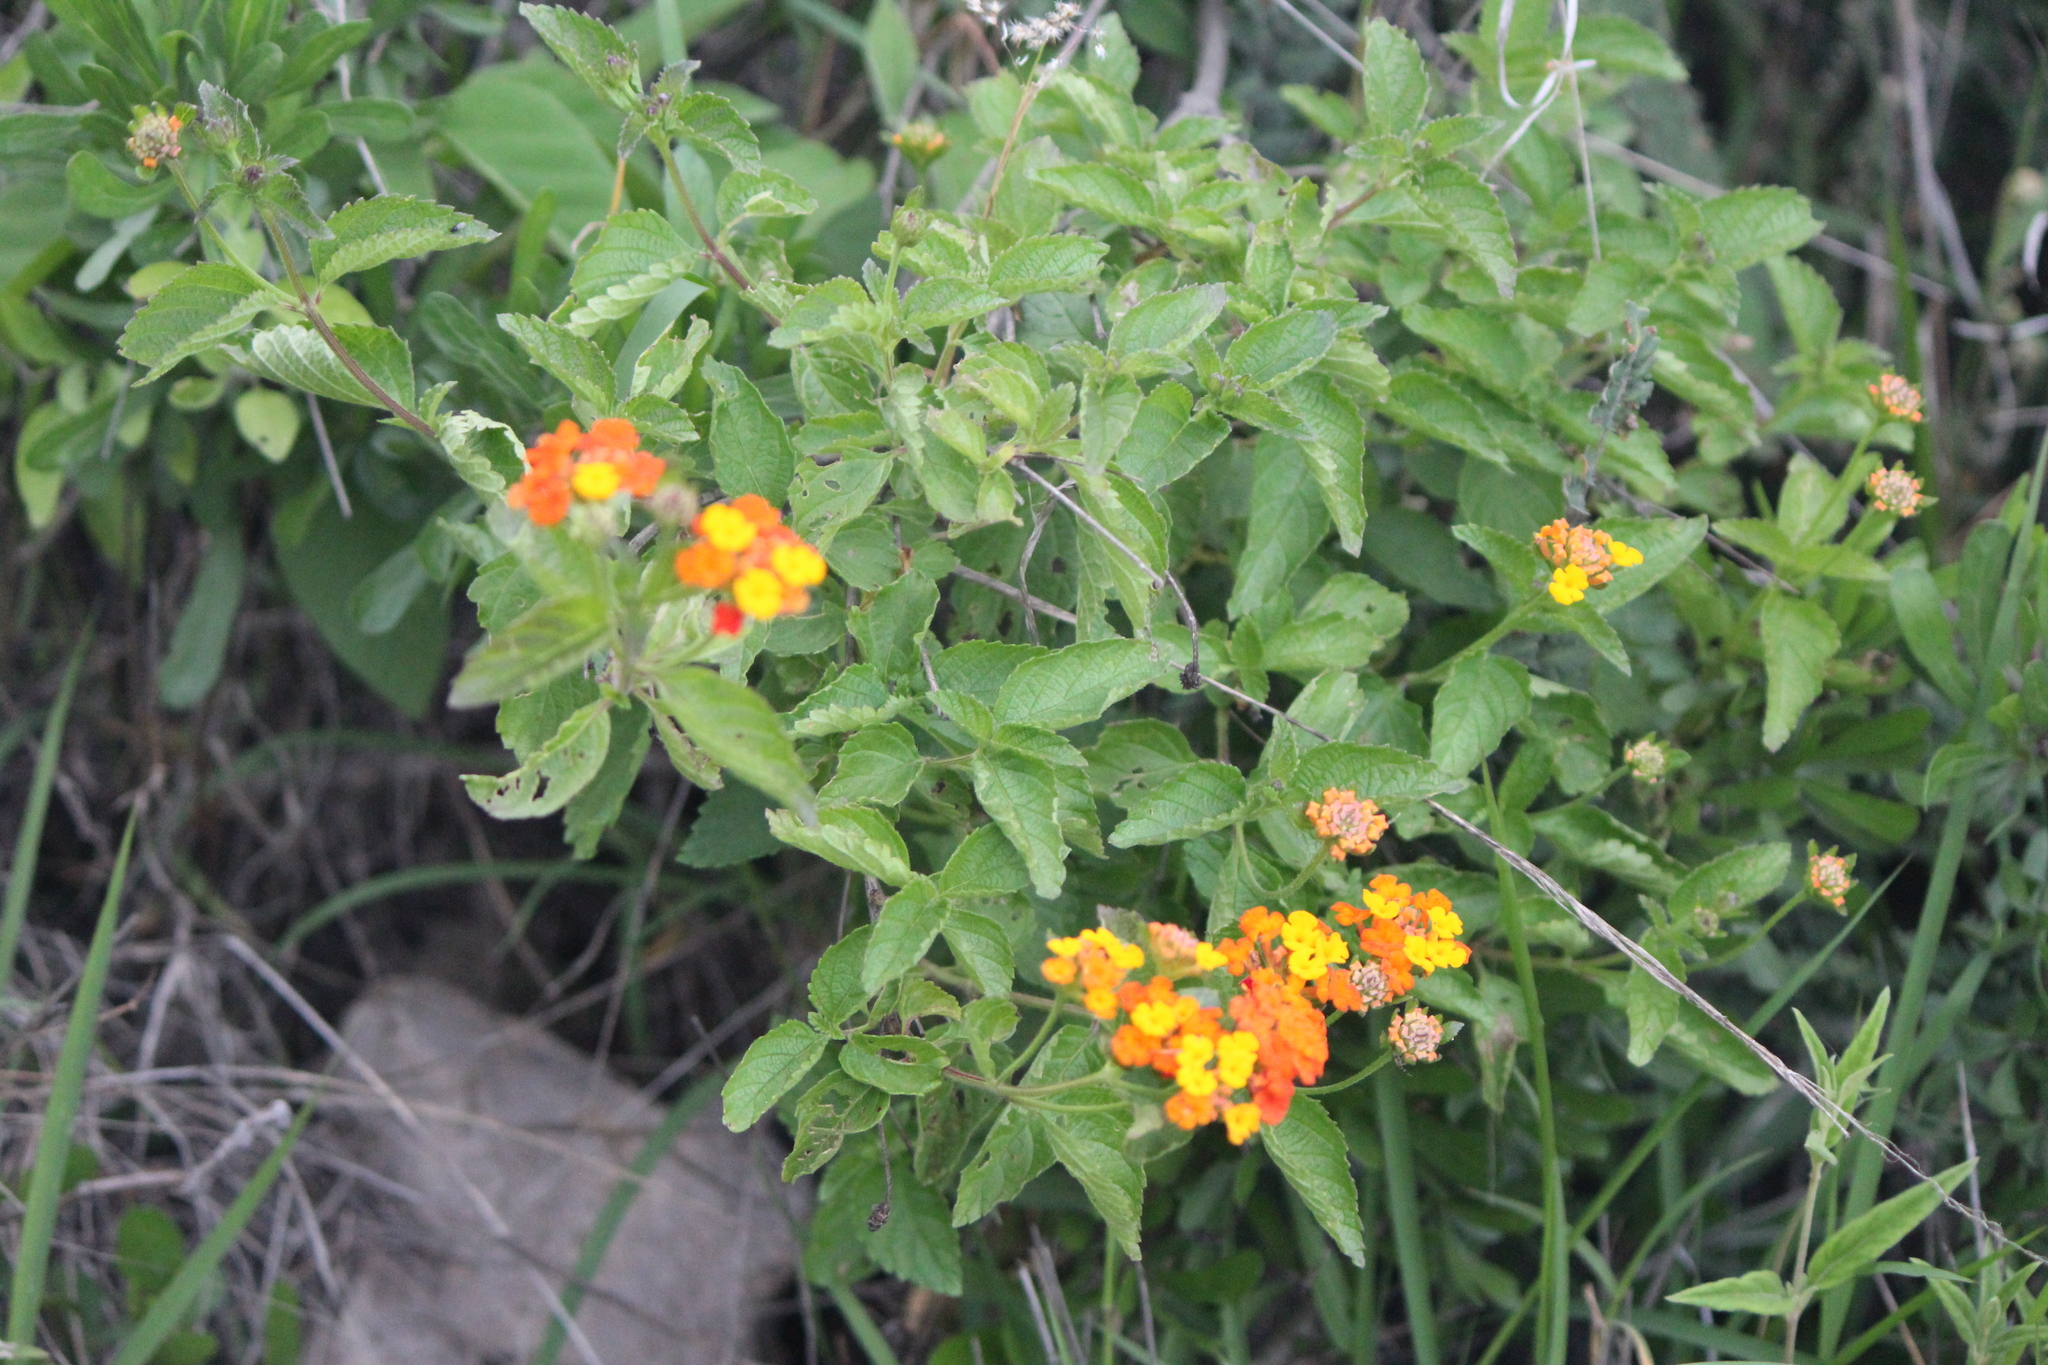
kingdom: Plantae
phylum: Tracheophyta
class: Magnoliopsida
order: Lamiales
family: Verbenaceae
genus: Lantana
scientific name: Lantana camara
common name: Lantana
